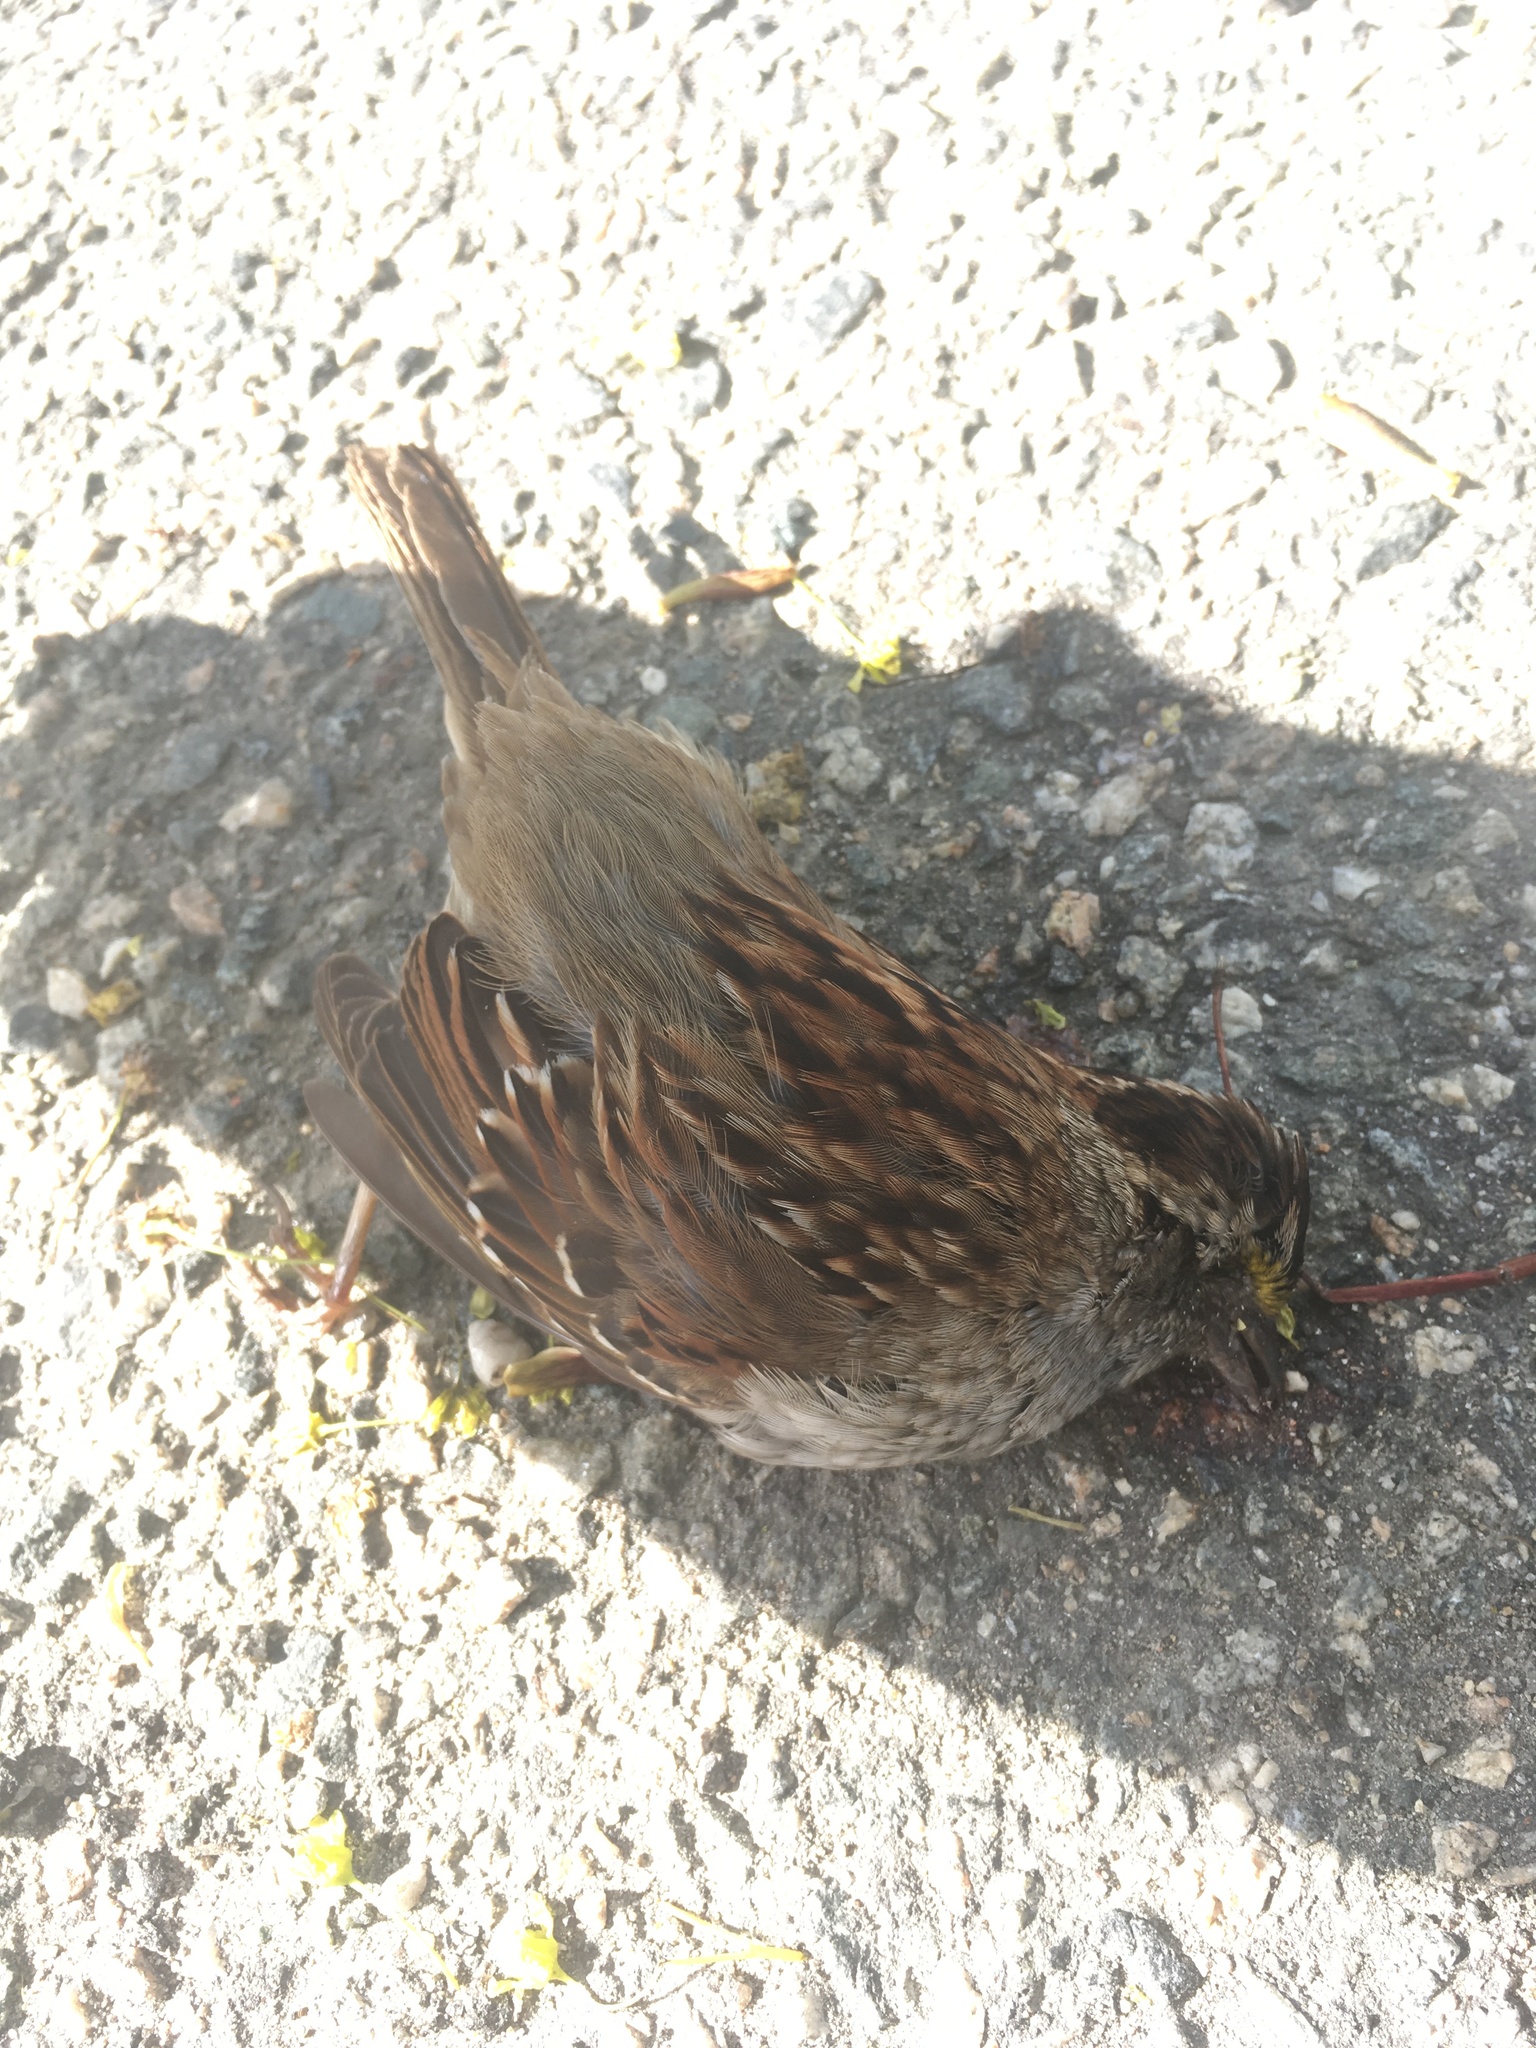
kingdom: Animalia
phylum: Chordata
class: Aves
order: Passeriformes
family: Passerellidae
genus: Zonotrichia
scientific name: Zonotrichia albicollis
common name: White-throated sparrow
